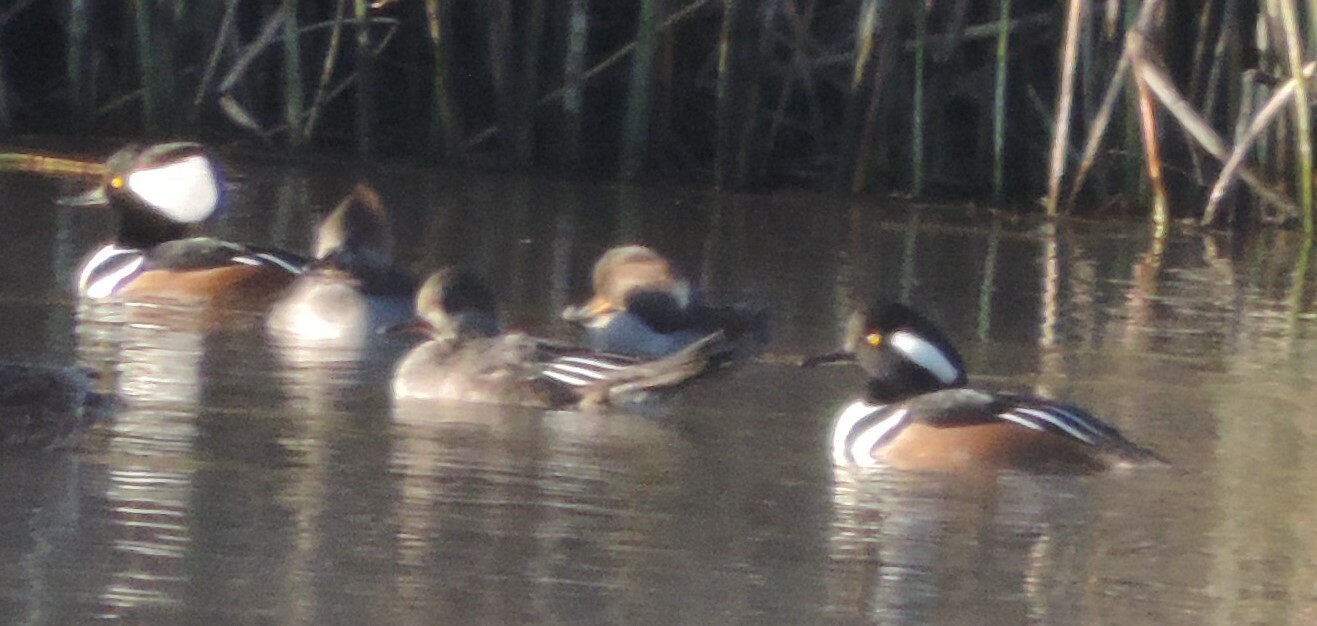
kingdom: Animalia
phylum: Chordata
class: Aves
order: Anseriformes
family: Anatidae
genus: Lophodytes
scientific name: Lophodytes cucullatus
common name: Hooded merganser
